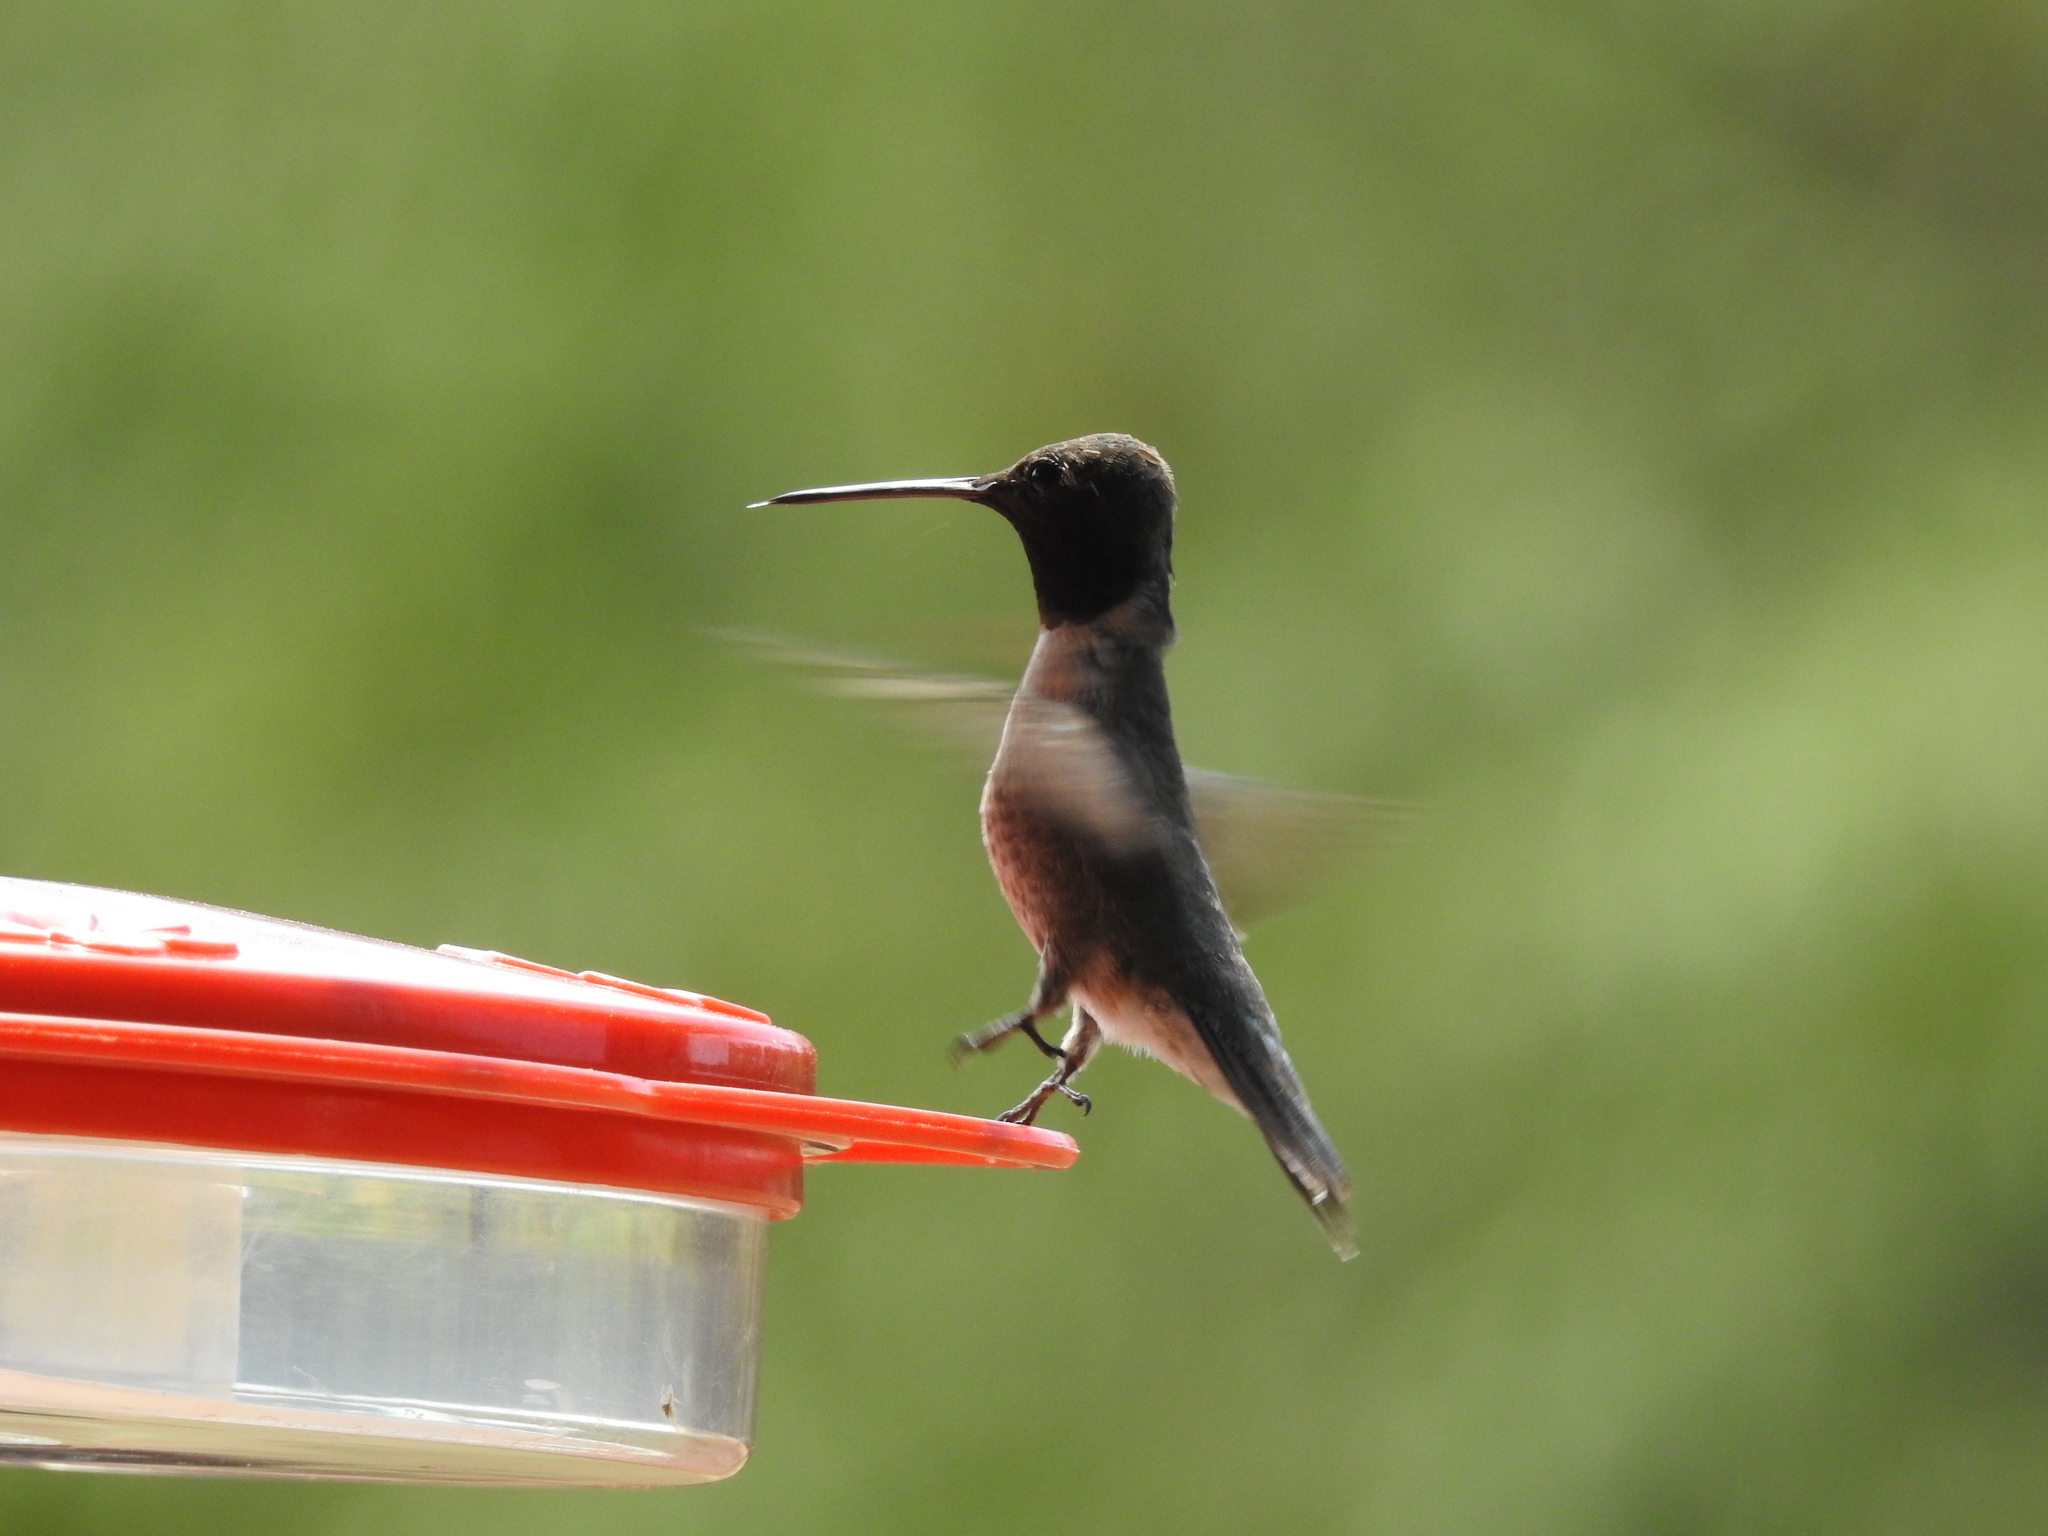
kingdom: Animalia
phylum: Chordata
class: Aves
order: Apodiformes
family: Trochilidae
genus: Archilochus
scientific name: Archilochus alexandri
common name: Black-chinned hummingbird
